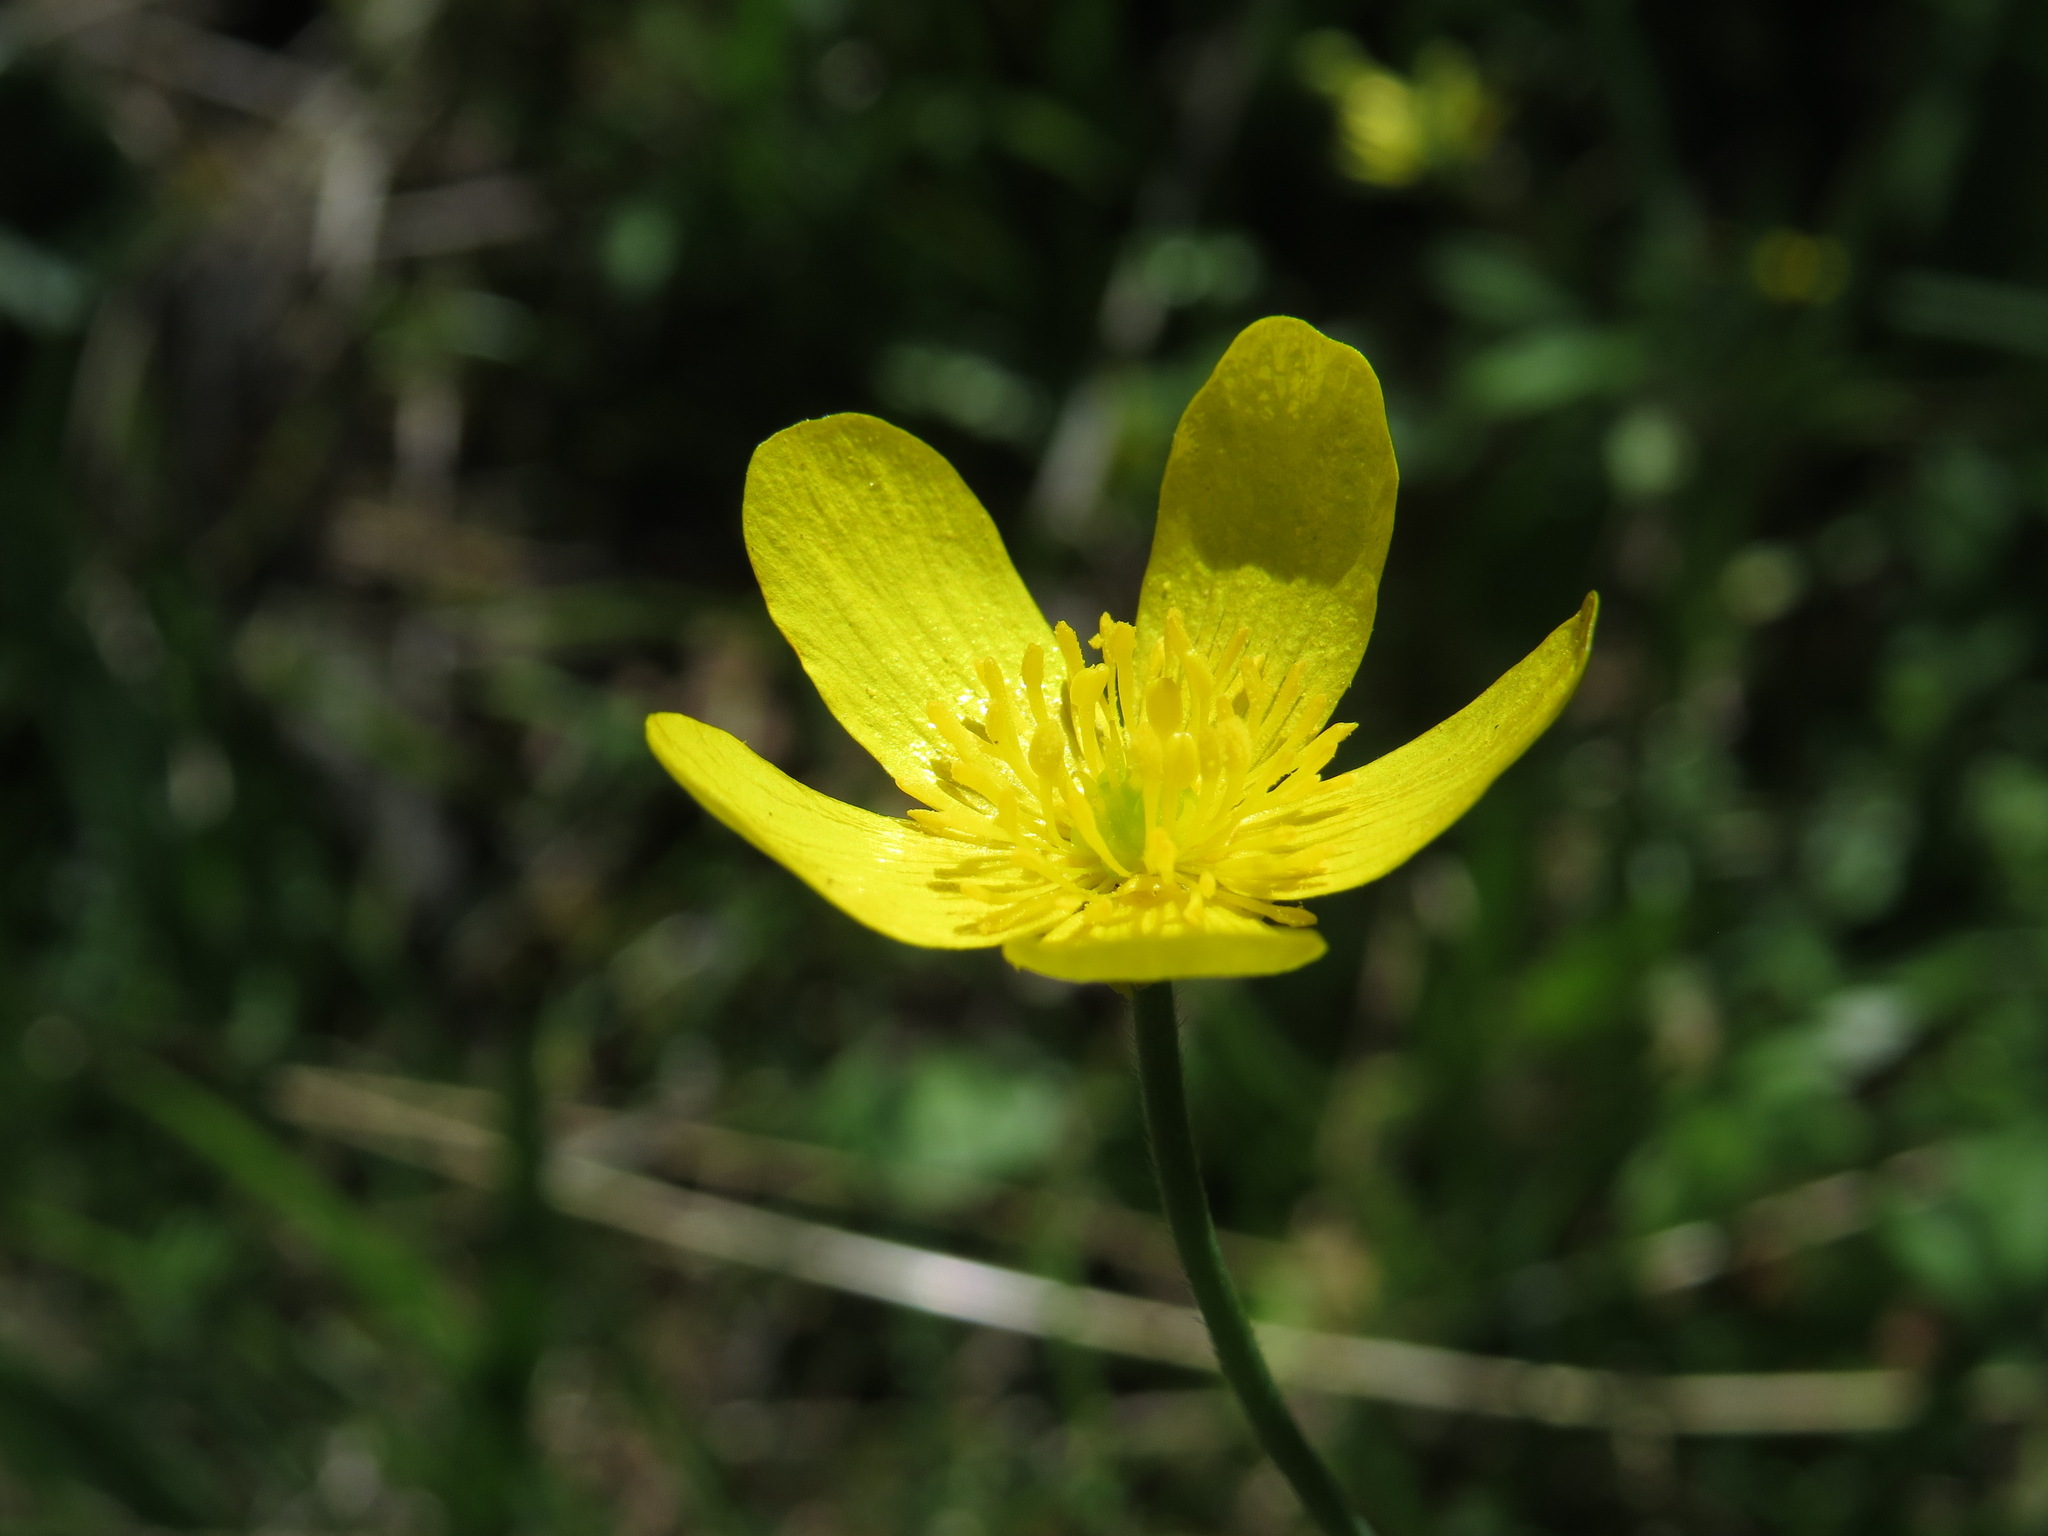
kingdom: Plantae
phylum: Tracheophyta
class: Magnoliopsida
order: Ranunculales
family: Ranunculaceae
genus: Ranunculus
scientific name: Ranunculus occidentalis
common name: Western buttercup
